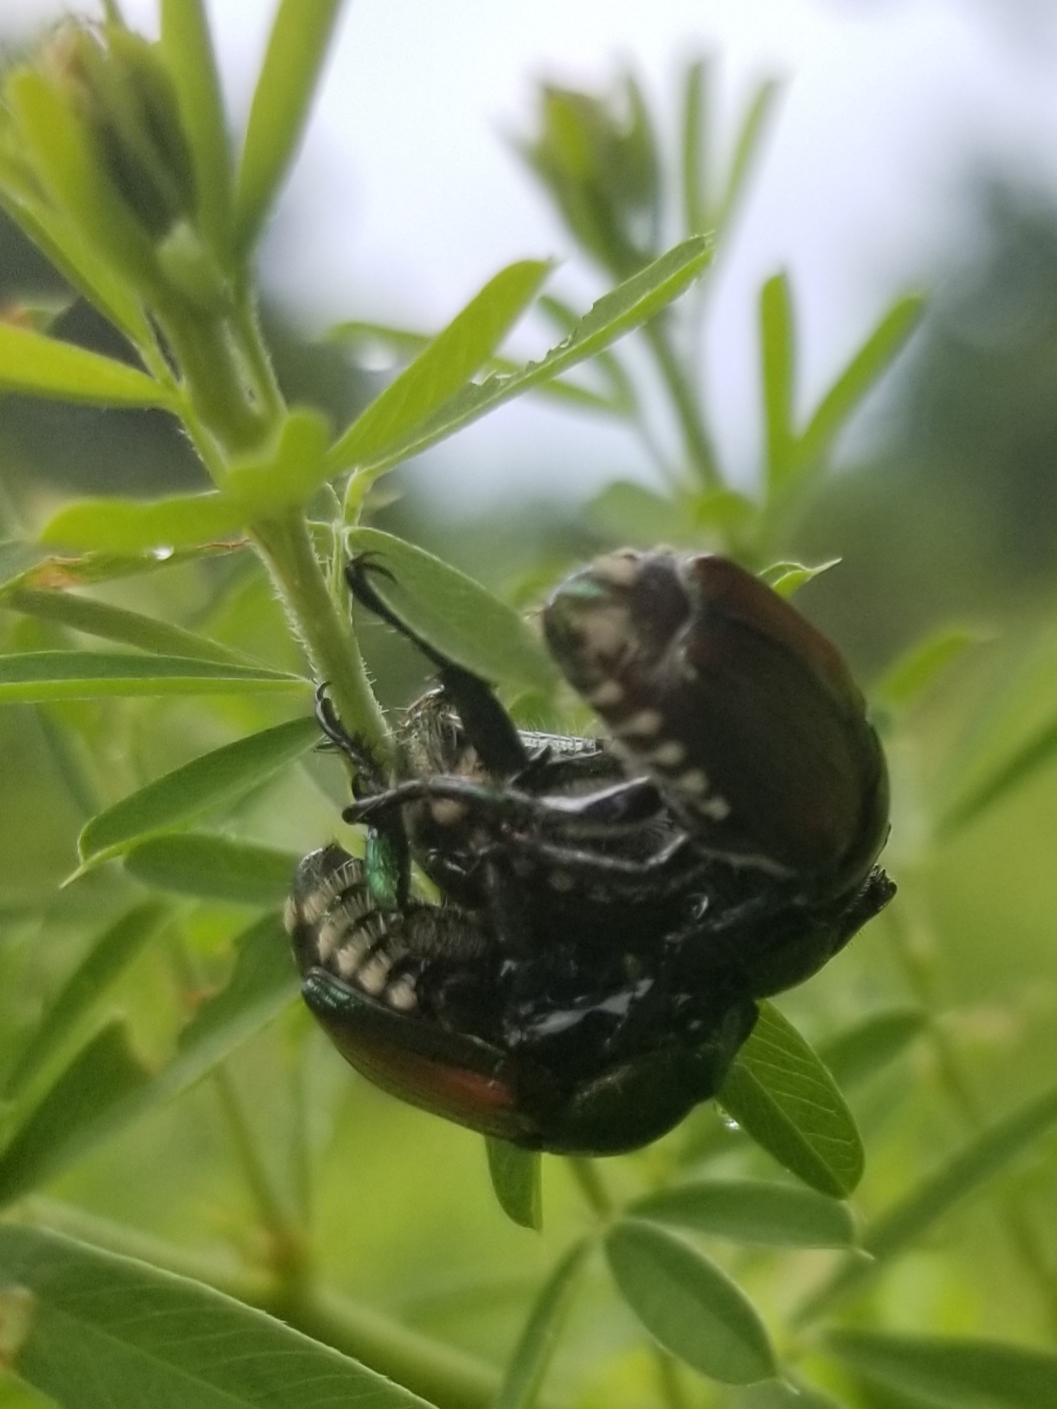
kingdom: Animalia
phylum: Arthropoda
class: Insecta
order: Coleoptera
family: Scarabaeidae
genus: Popillia
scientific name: Popillia japonica
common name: Japanese beetle
